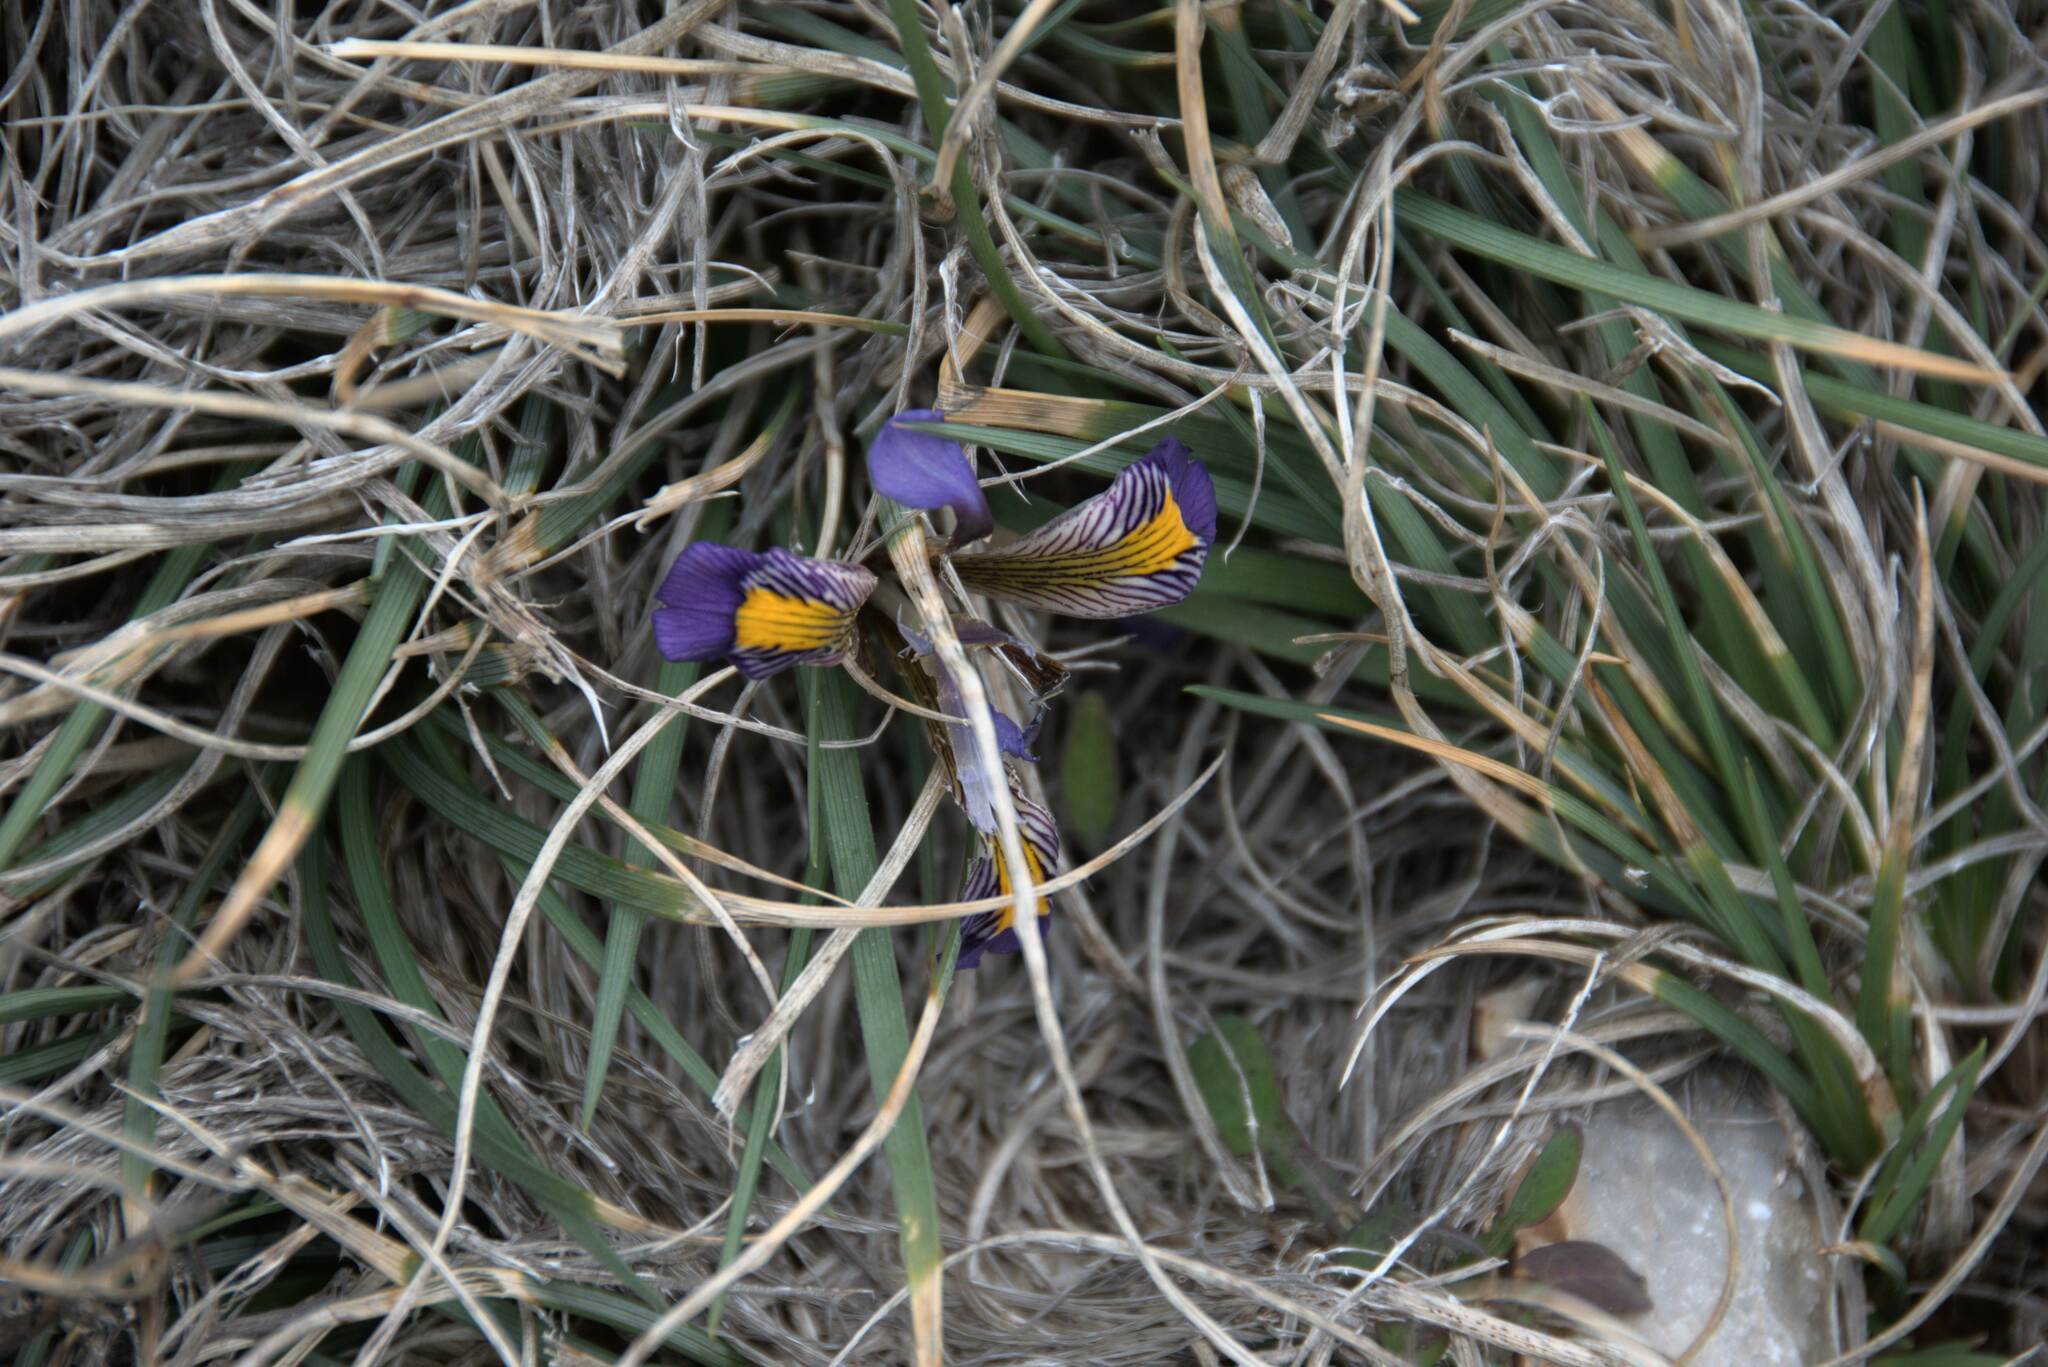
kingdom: Plantae
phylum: Tracheophyta
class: Liliopsida
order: Asparagales
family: Iridaceae
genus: Iris
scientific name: Iris unguicularis
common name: Algerian iris
